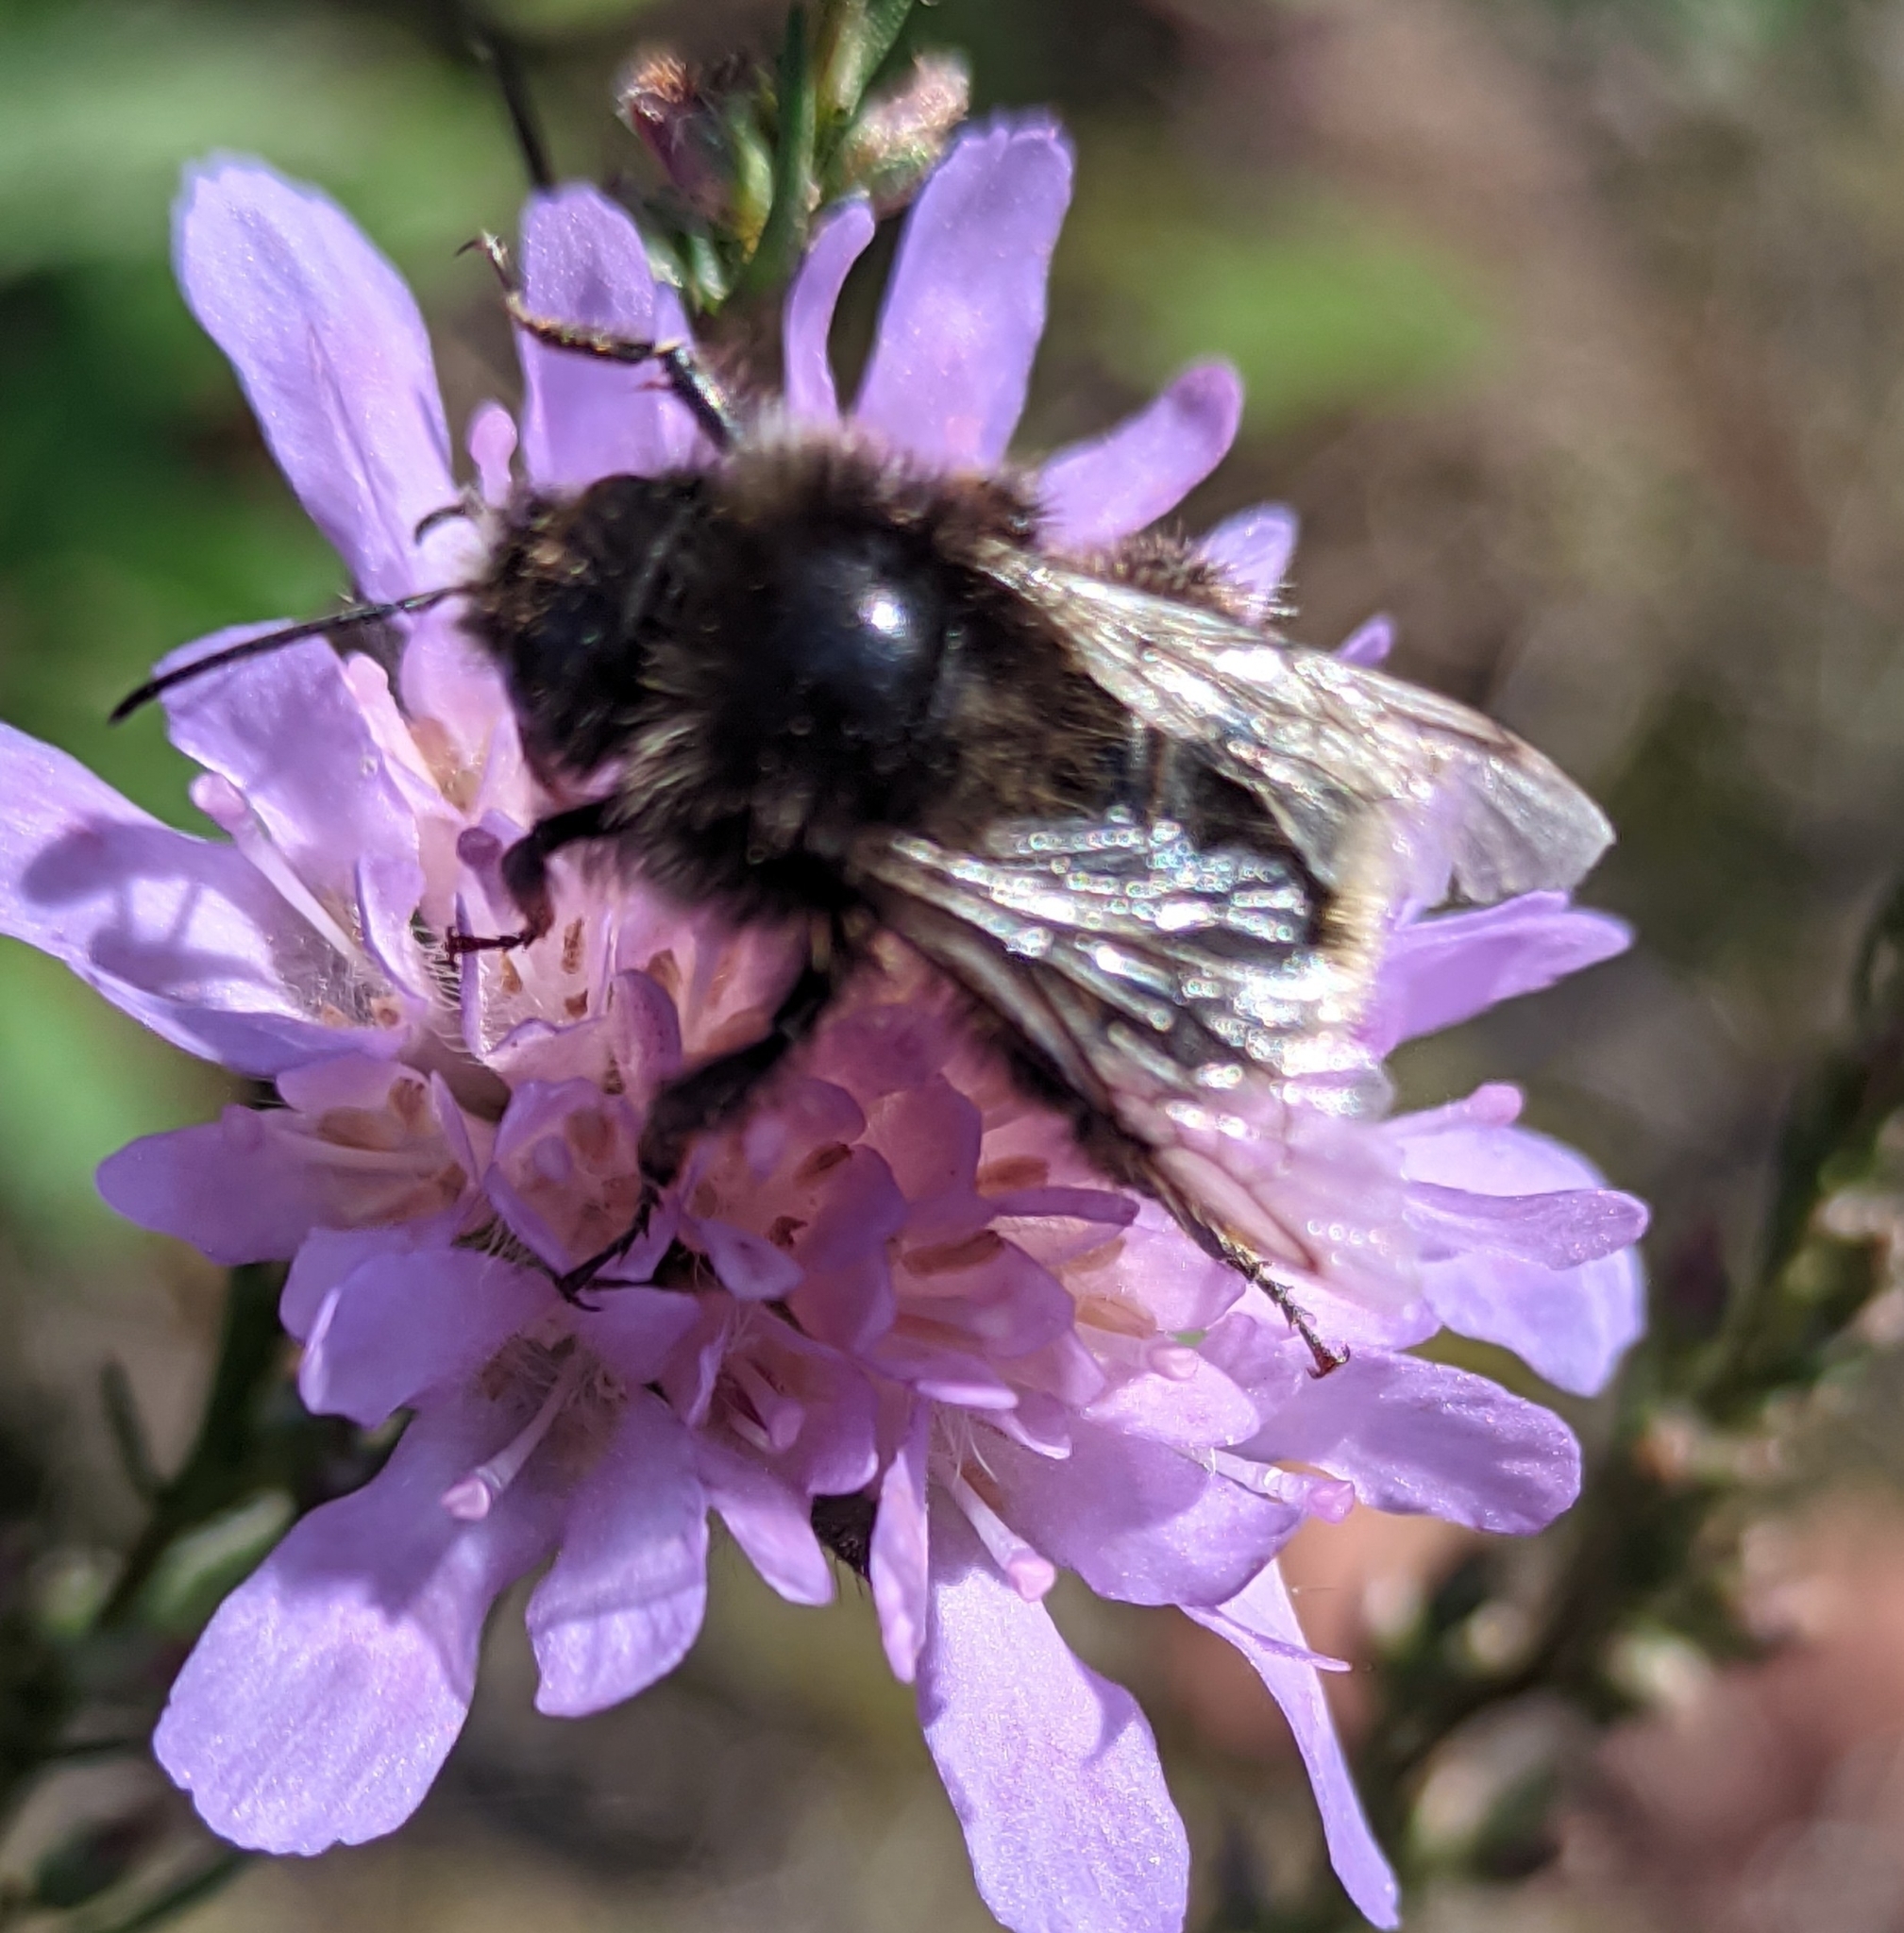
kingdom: Animalia
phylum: Arthropoda
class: Insecta
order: Hymenoptera
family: Apidae
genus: Bombus
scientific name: Bombus lapidarius
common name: Large red-tailed humble-bee
